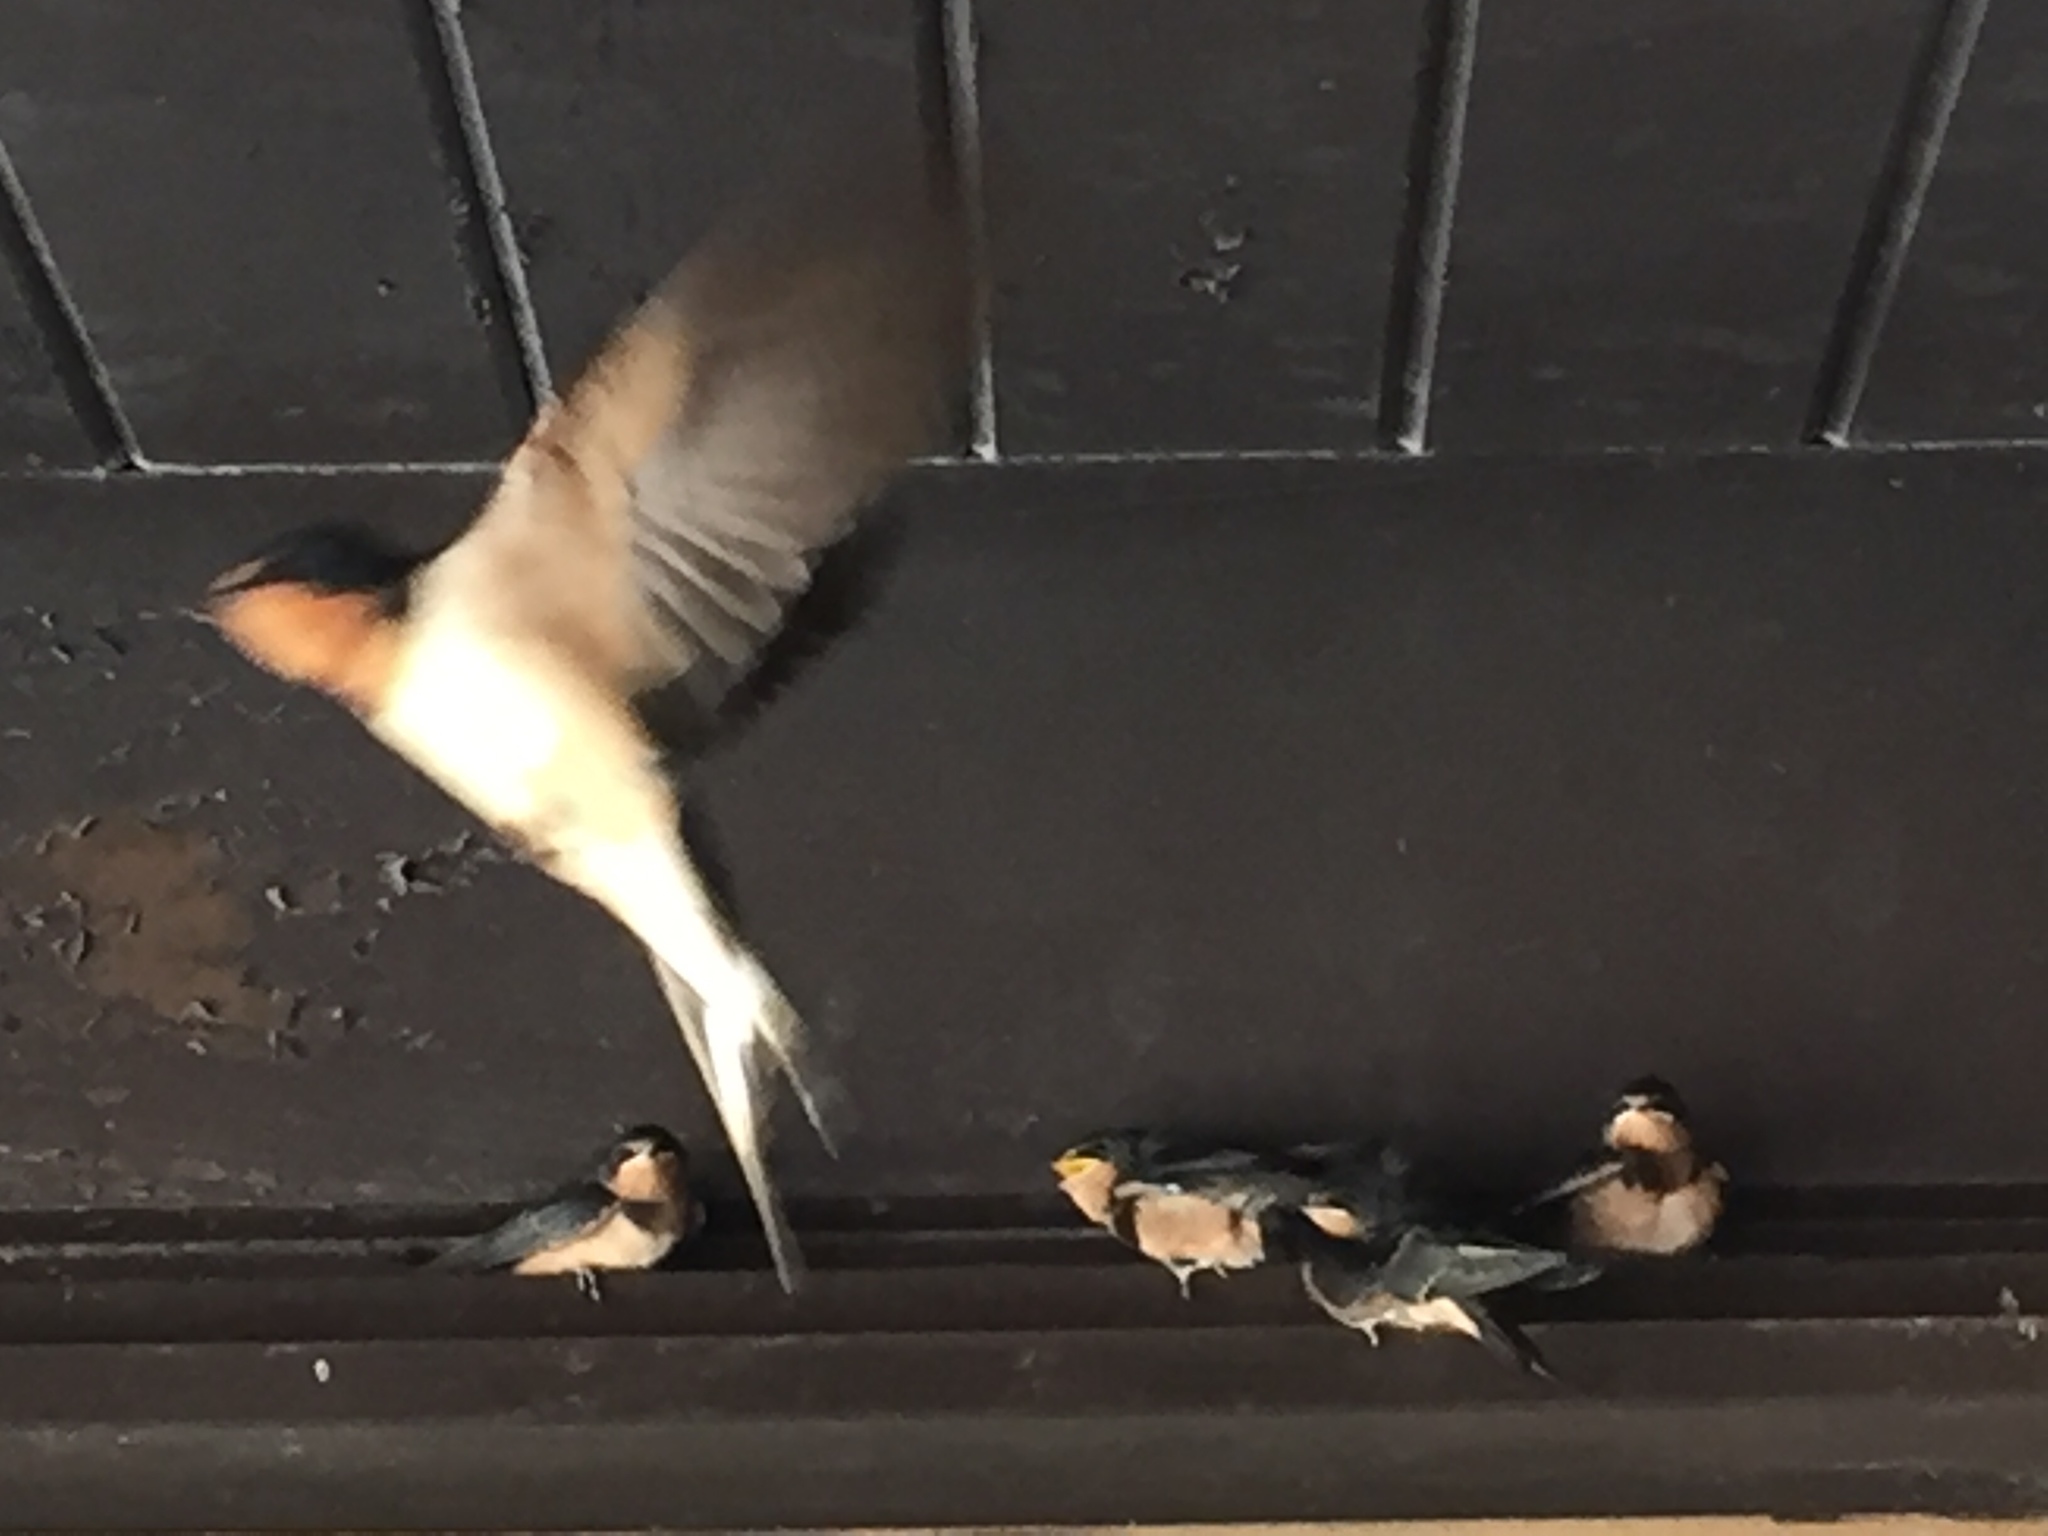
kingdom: Animalia
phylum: Chordata
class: Aves
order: Passeriformes
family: Hirundinidae
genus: Hirundo
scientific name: Hirundo rustica
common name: Barn swallow
